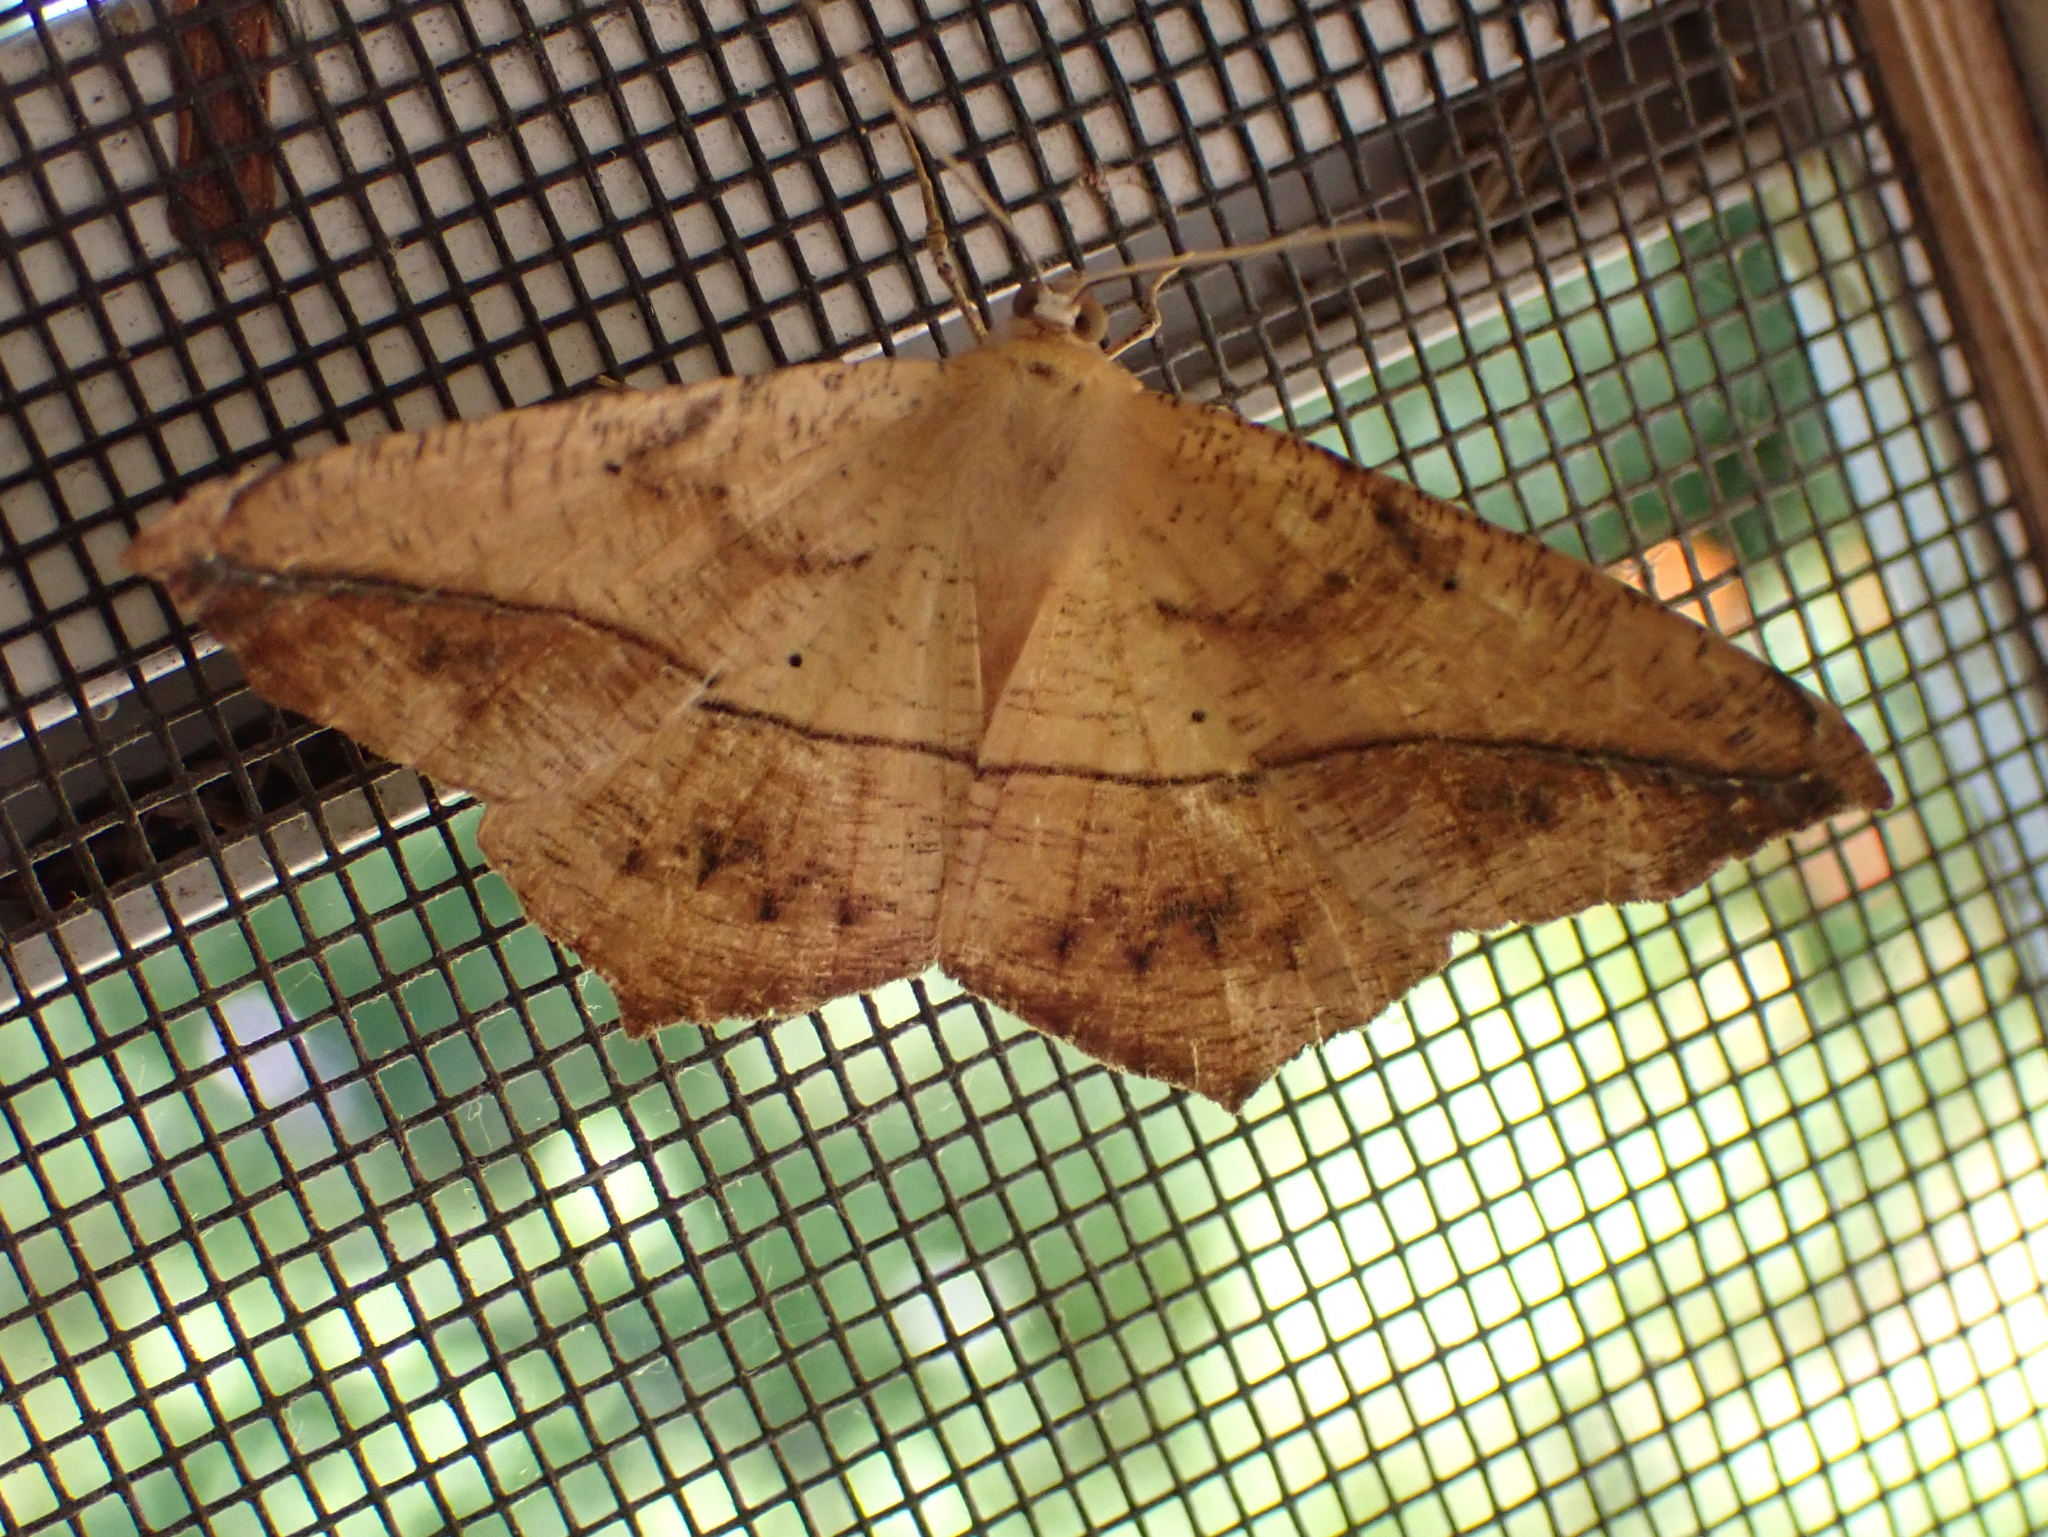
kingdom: Animalia
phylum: Arthropoda
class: Insecta
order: Lepidoptera
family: Geometridae
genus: Prochoerodes
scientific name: Prochoerodes lineola
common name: Large maple spanworm
